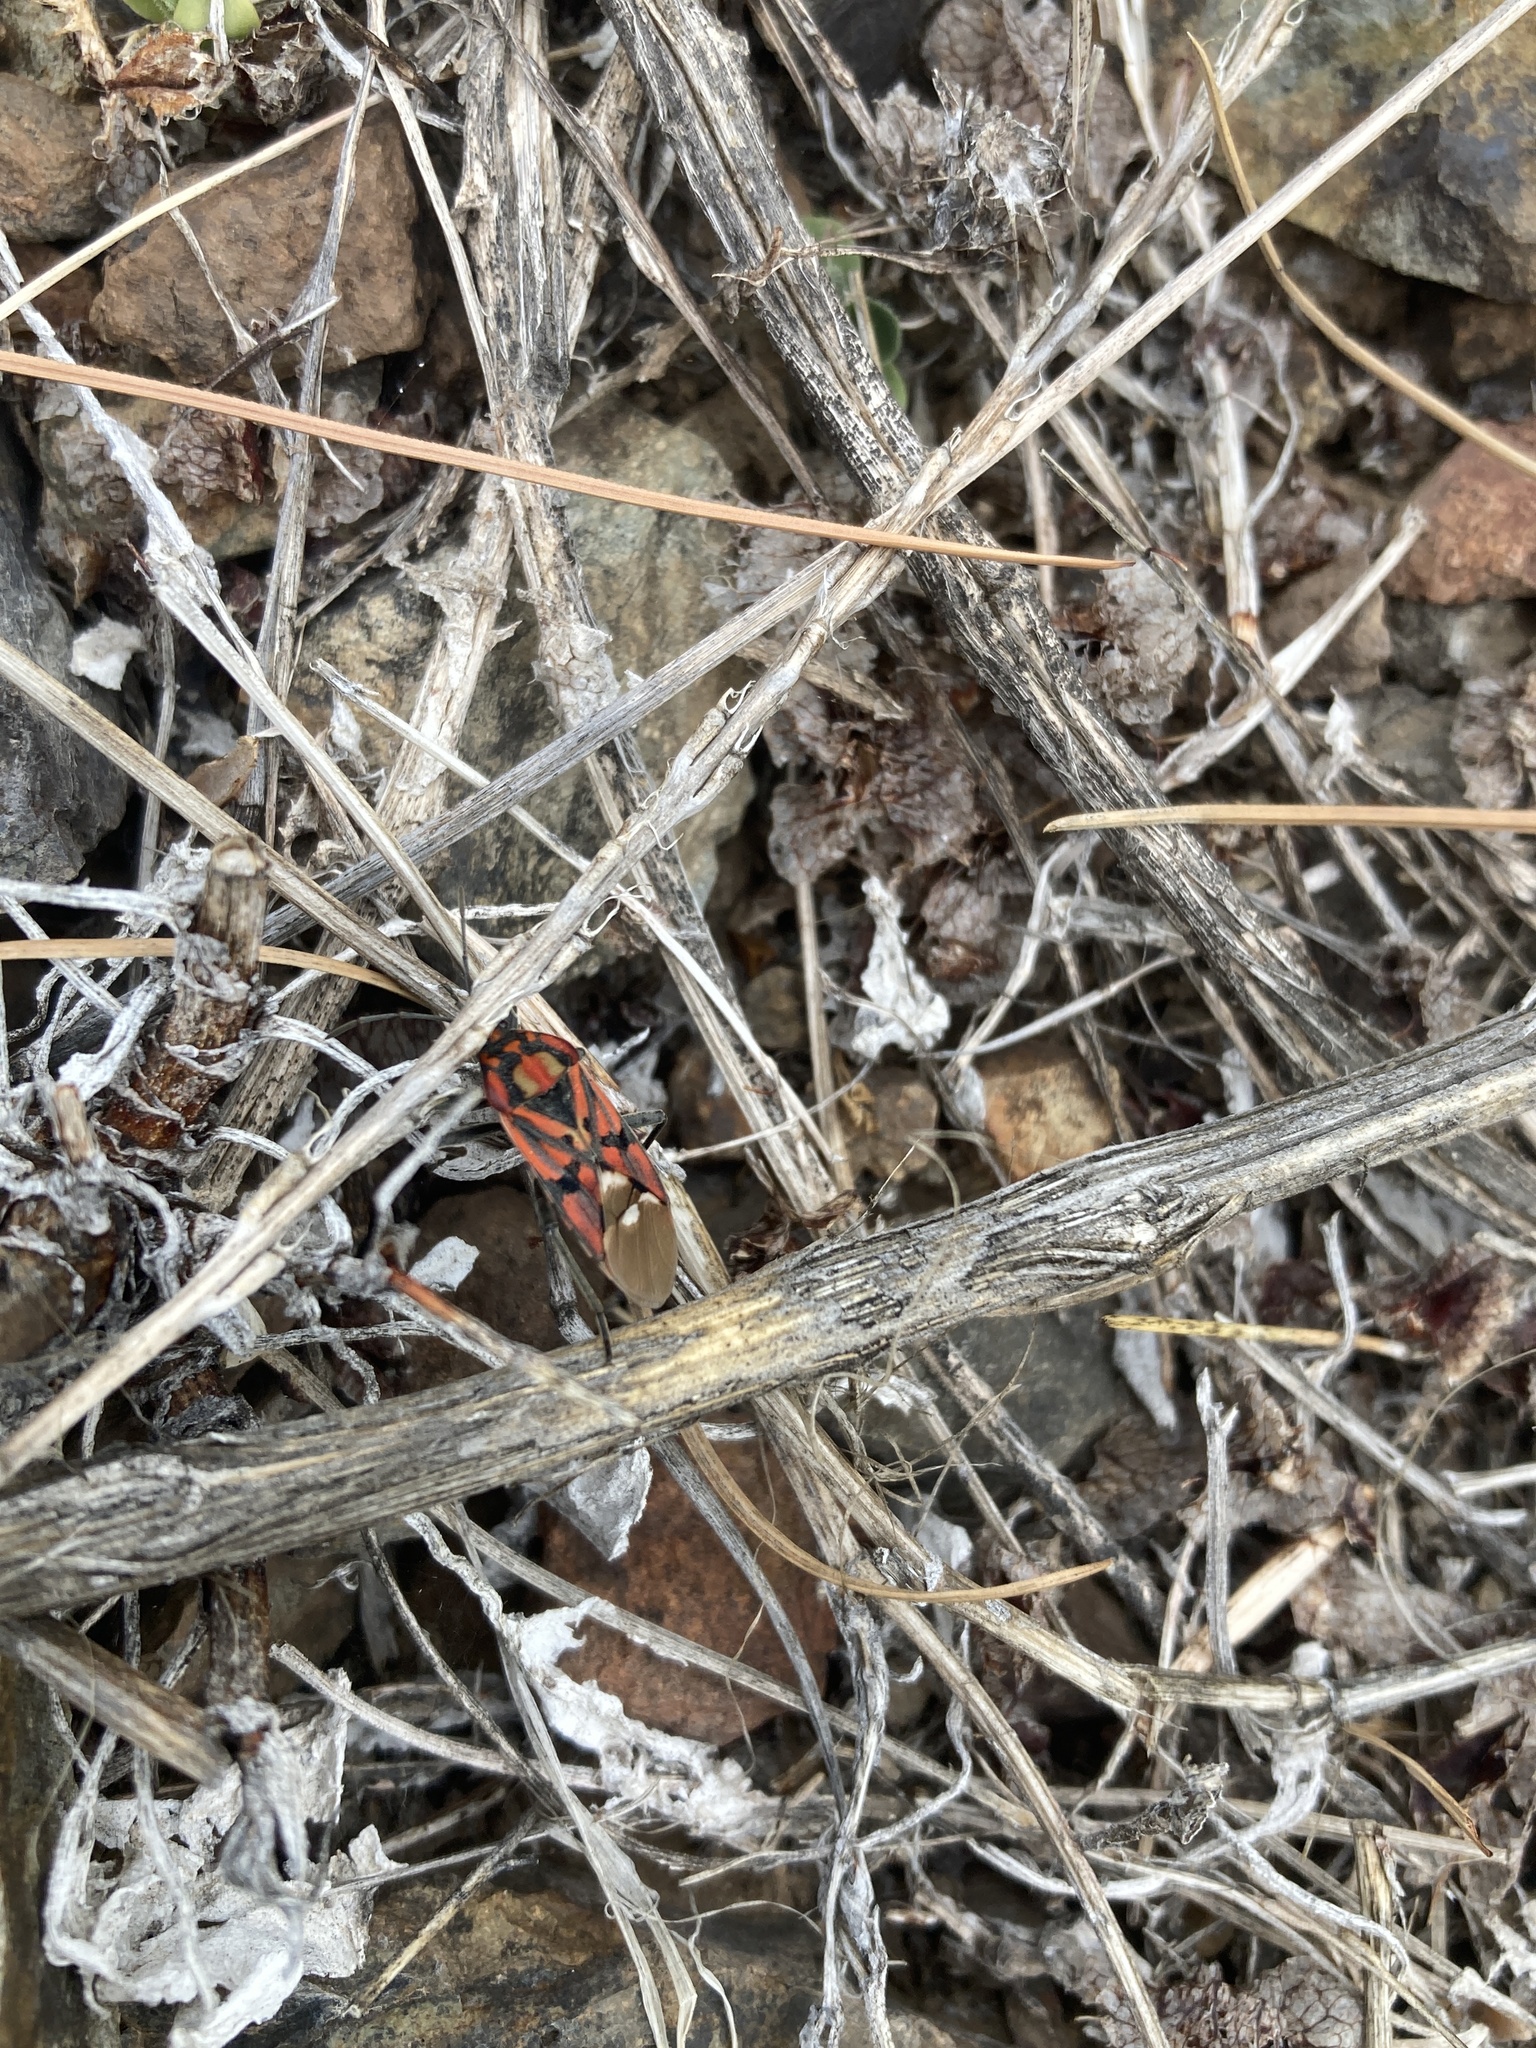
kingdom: Animalia
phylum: Arthropoda
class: Insecta
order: Hemiptera
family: Lygaeidae
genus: Spilostethus
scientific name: Spilostethus pandurus
